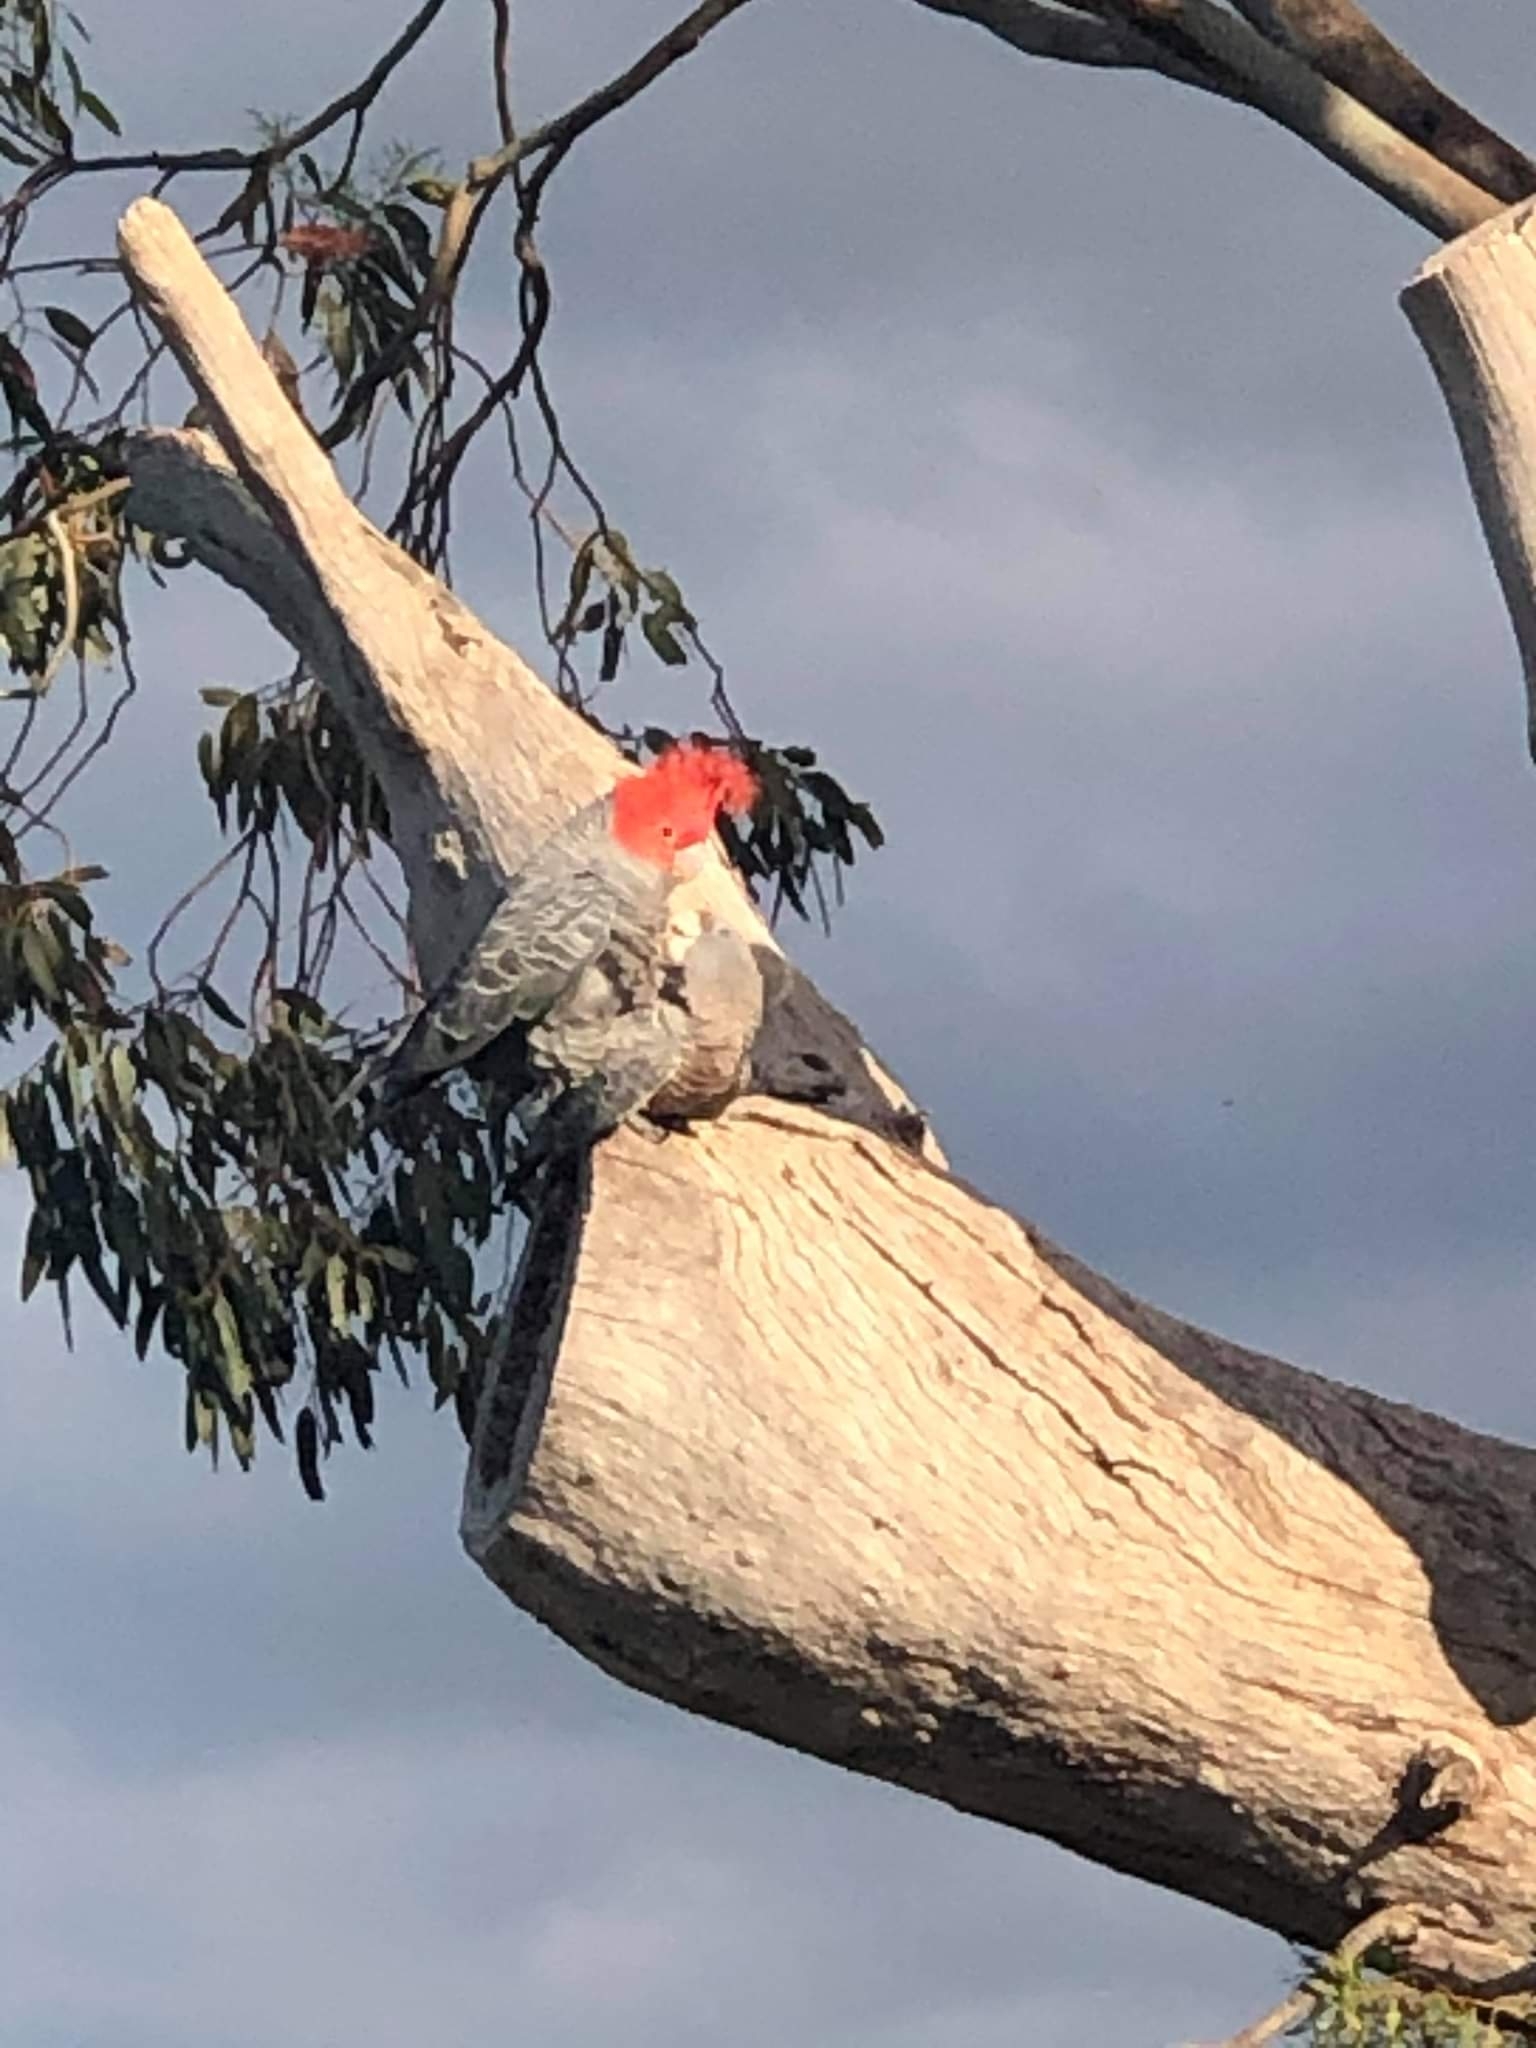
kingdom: Animalia
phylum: Chordata
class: Aves
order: Psittaciformes
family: Psittacidae
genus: Callocephalon
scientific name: Callocephalon fimbriatum
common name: Gang-gang cockatoo
